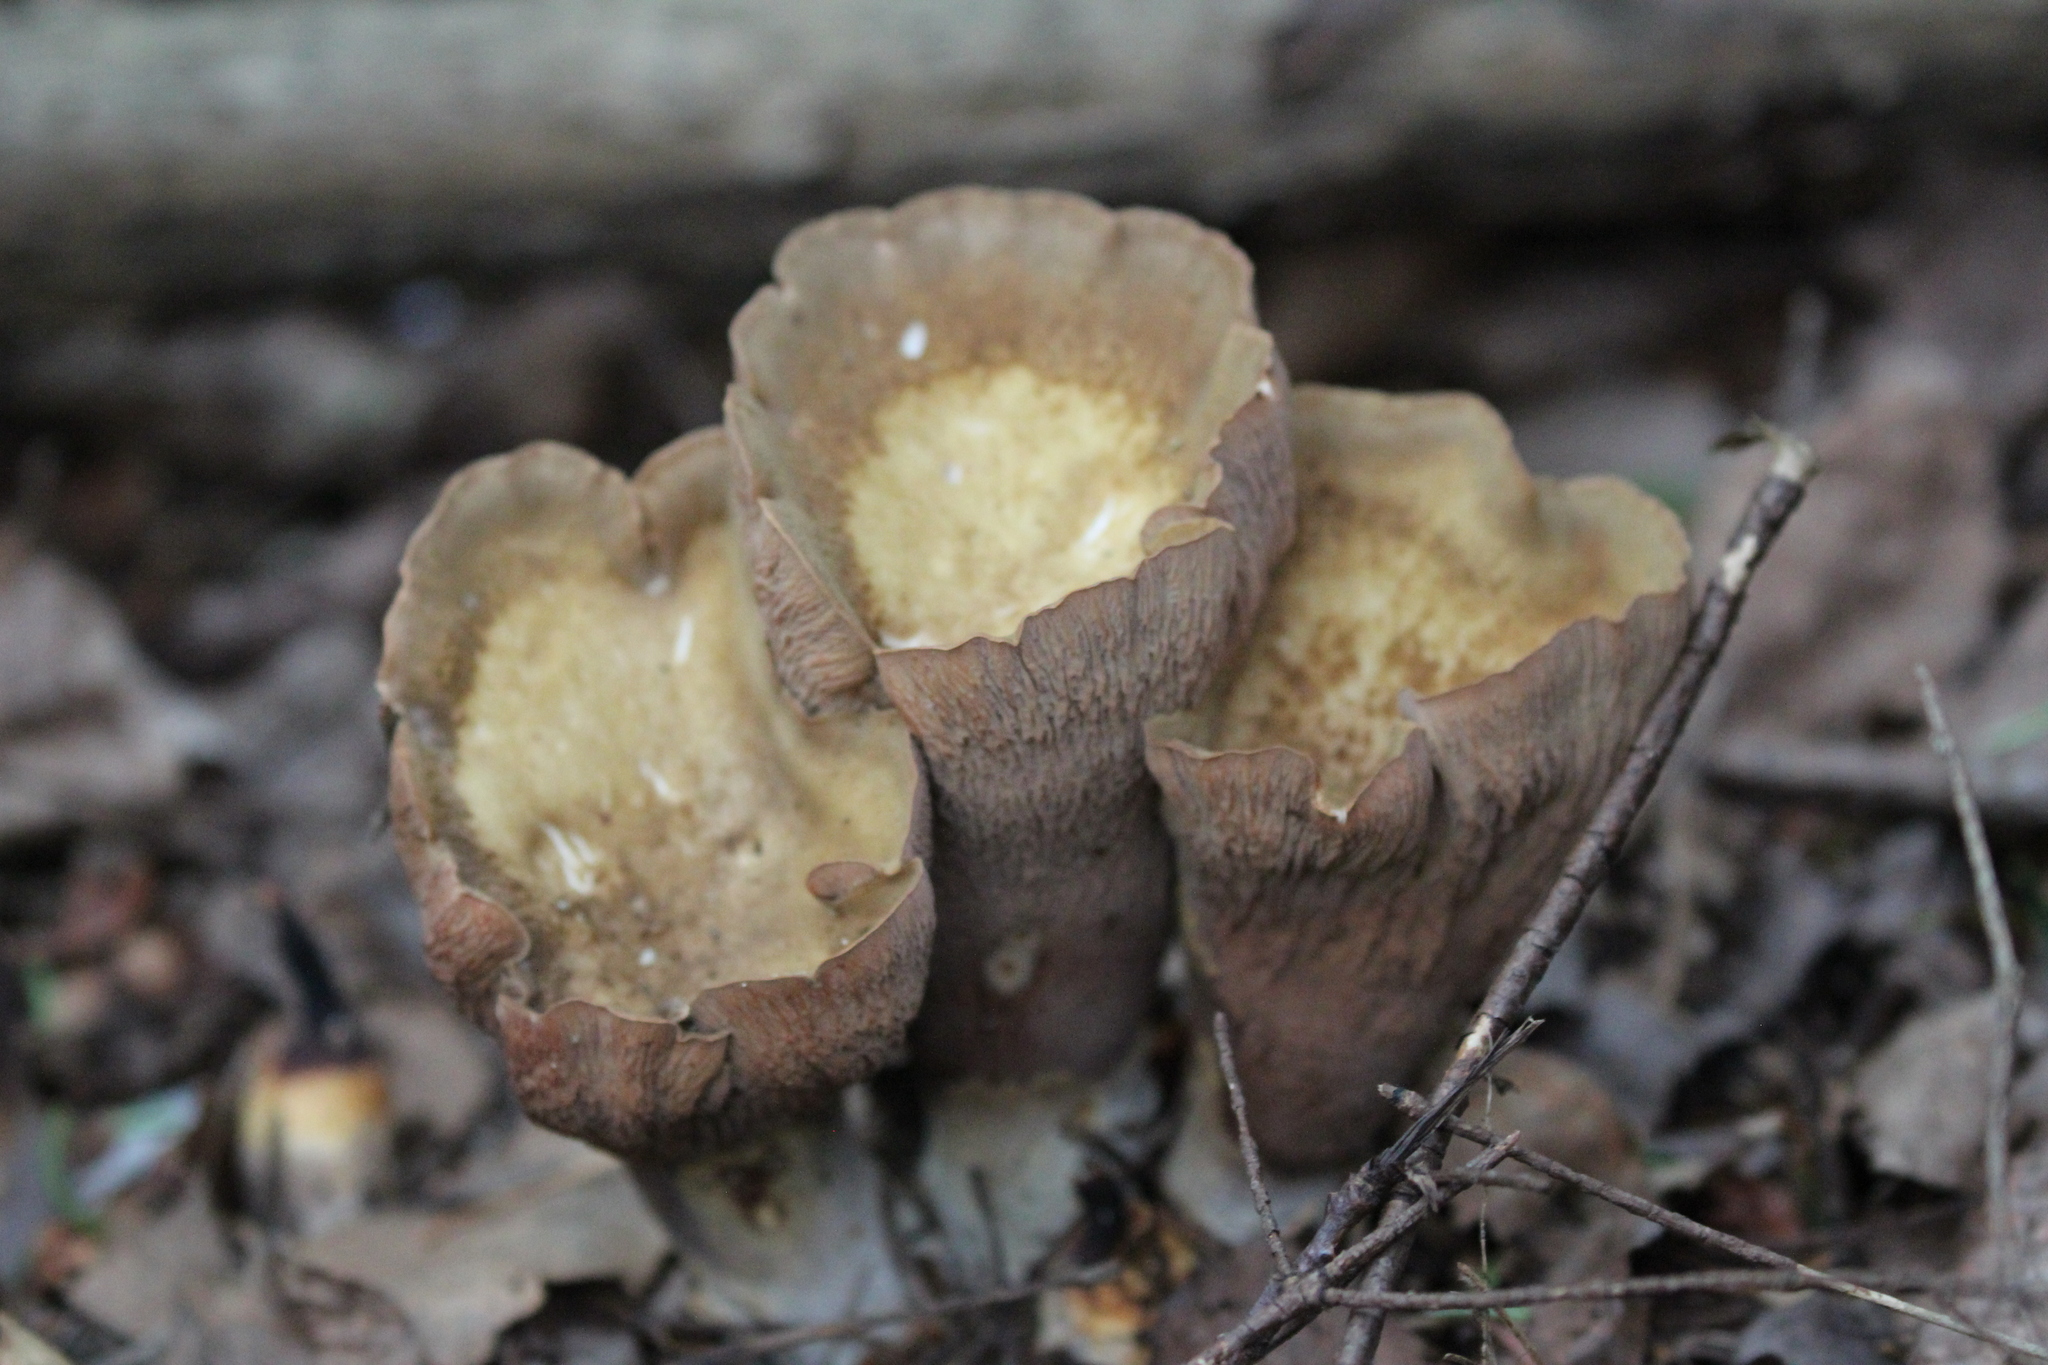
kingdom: Fungi
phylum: Basidiomycota
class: Agaricomycetes
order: Gomphales
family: Gomphaceae
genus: Gomphus
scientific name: Gomphus clavatus
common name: Pig's ear
